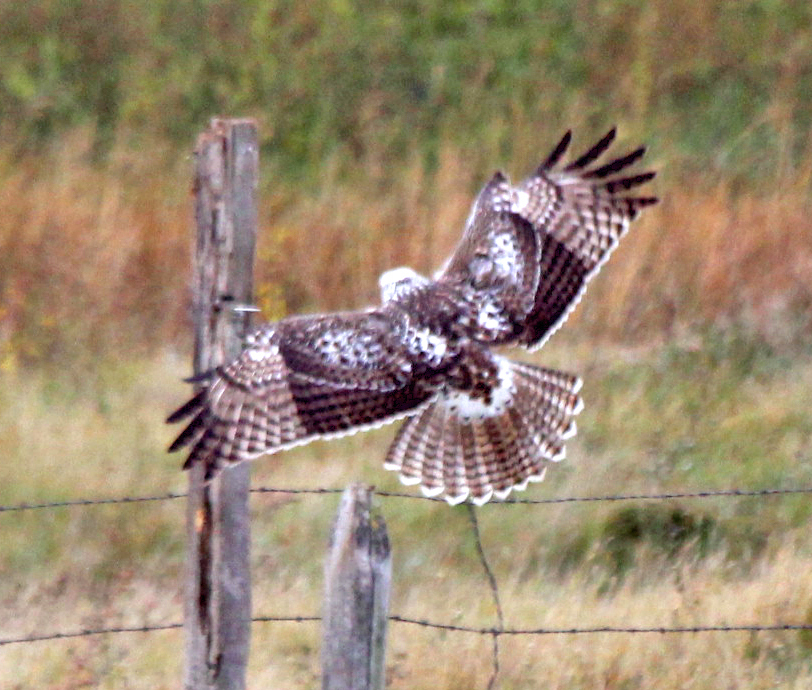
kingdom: Animalia
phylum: Chordata
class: Aves
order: Accipitriformes
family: Accipitridae
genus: Buteo
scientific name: Buteo jamaicensis
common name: Red-tailed hawk
